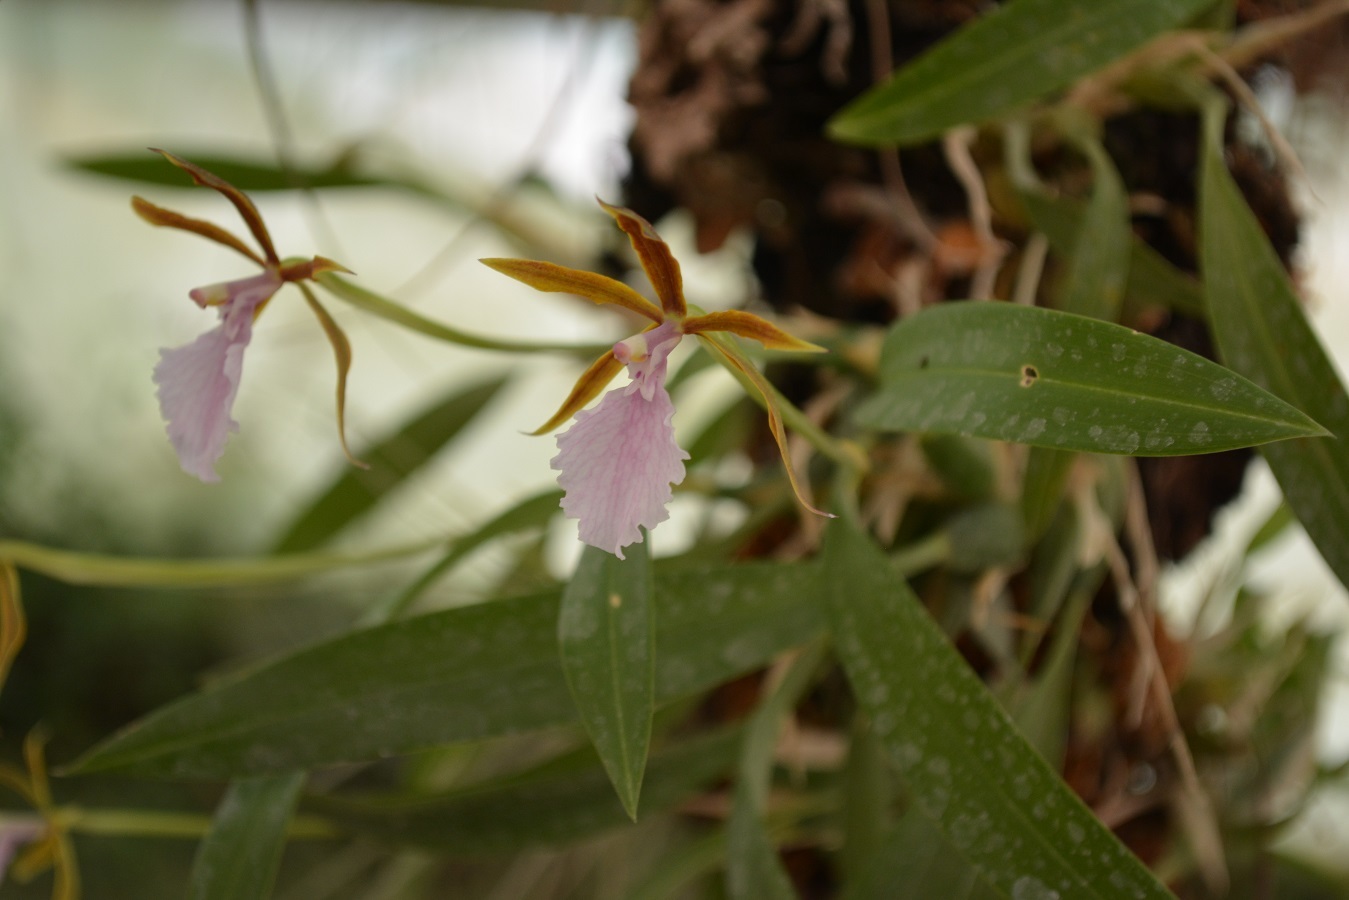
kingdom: Plantae
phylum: Tracheophyta
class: Liliopsida
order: Asparagales
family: Orchidaceae
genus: Rhynchostele
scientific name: Rhynchostele stellata
